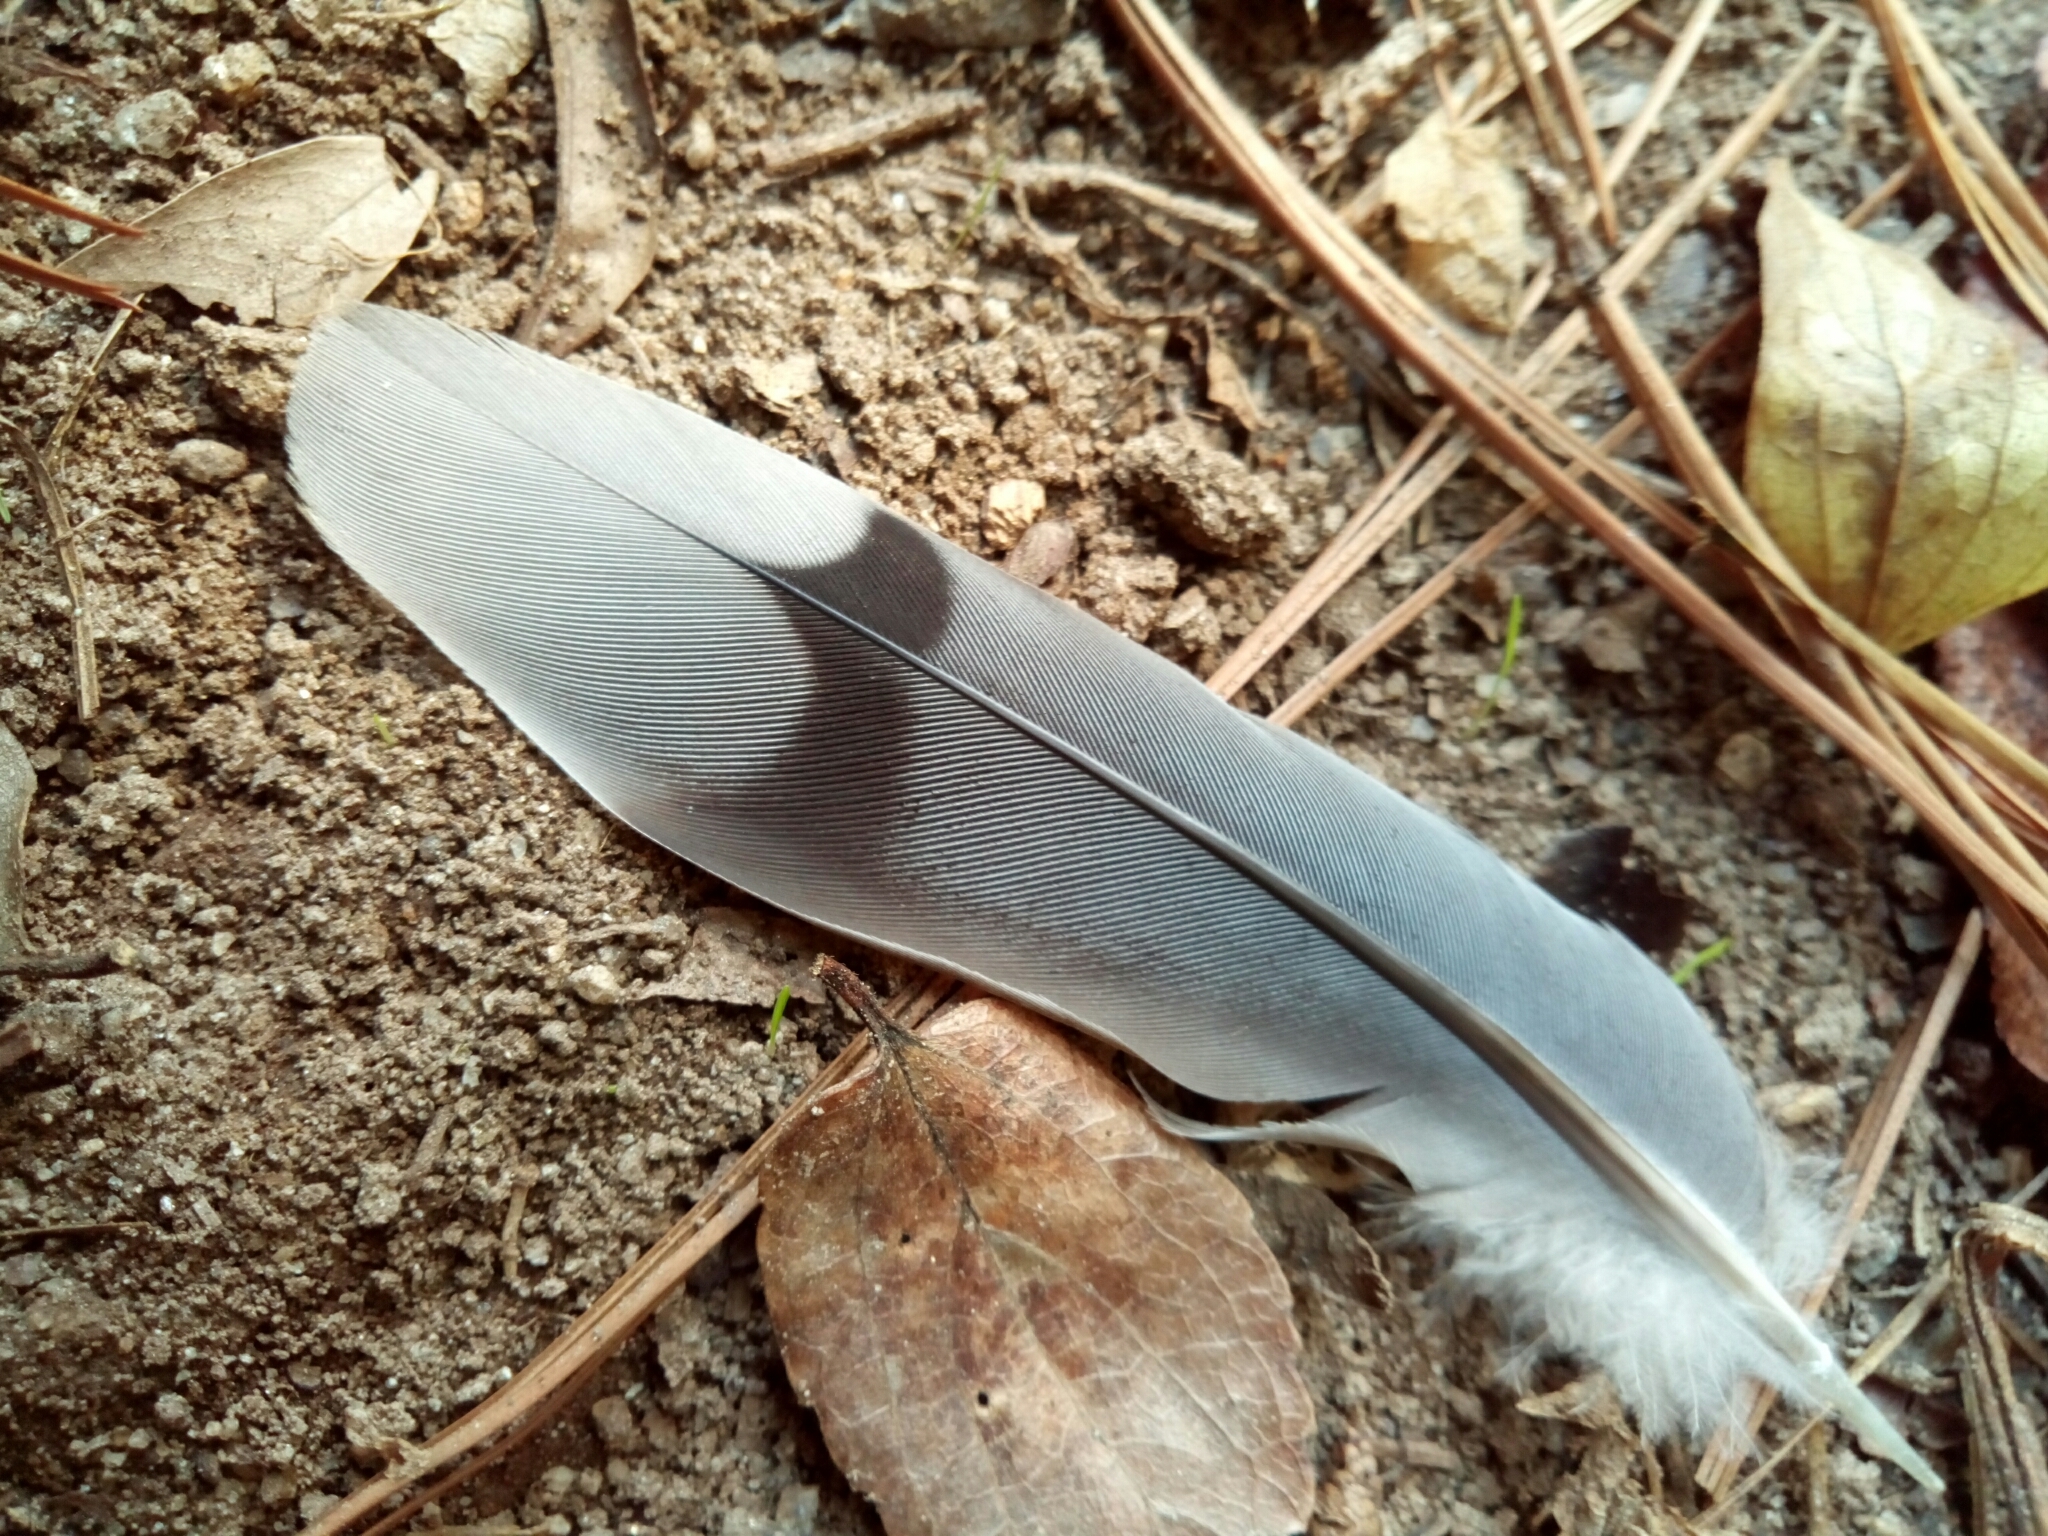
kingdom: Animalia
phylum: Chordata
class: Aves
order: Columbiformes
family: Columbidae
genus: Zenaida
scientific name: Zenaida macroura
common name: Mourning dove
